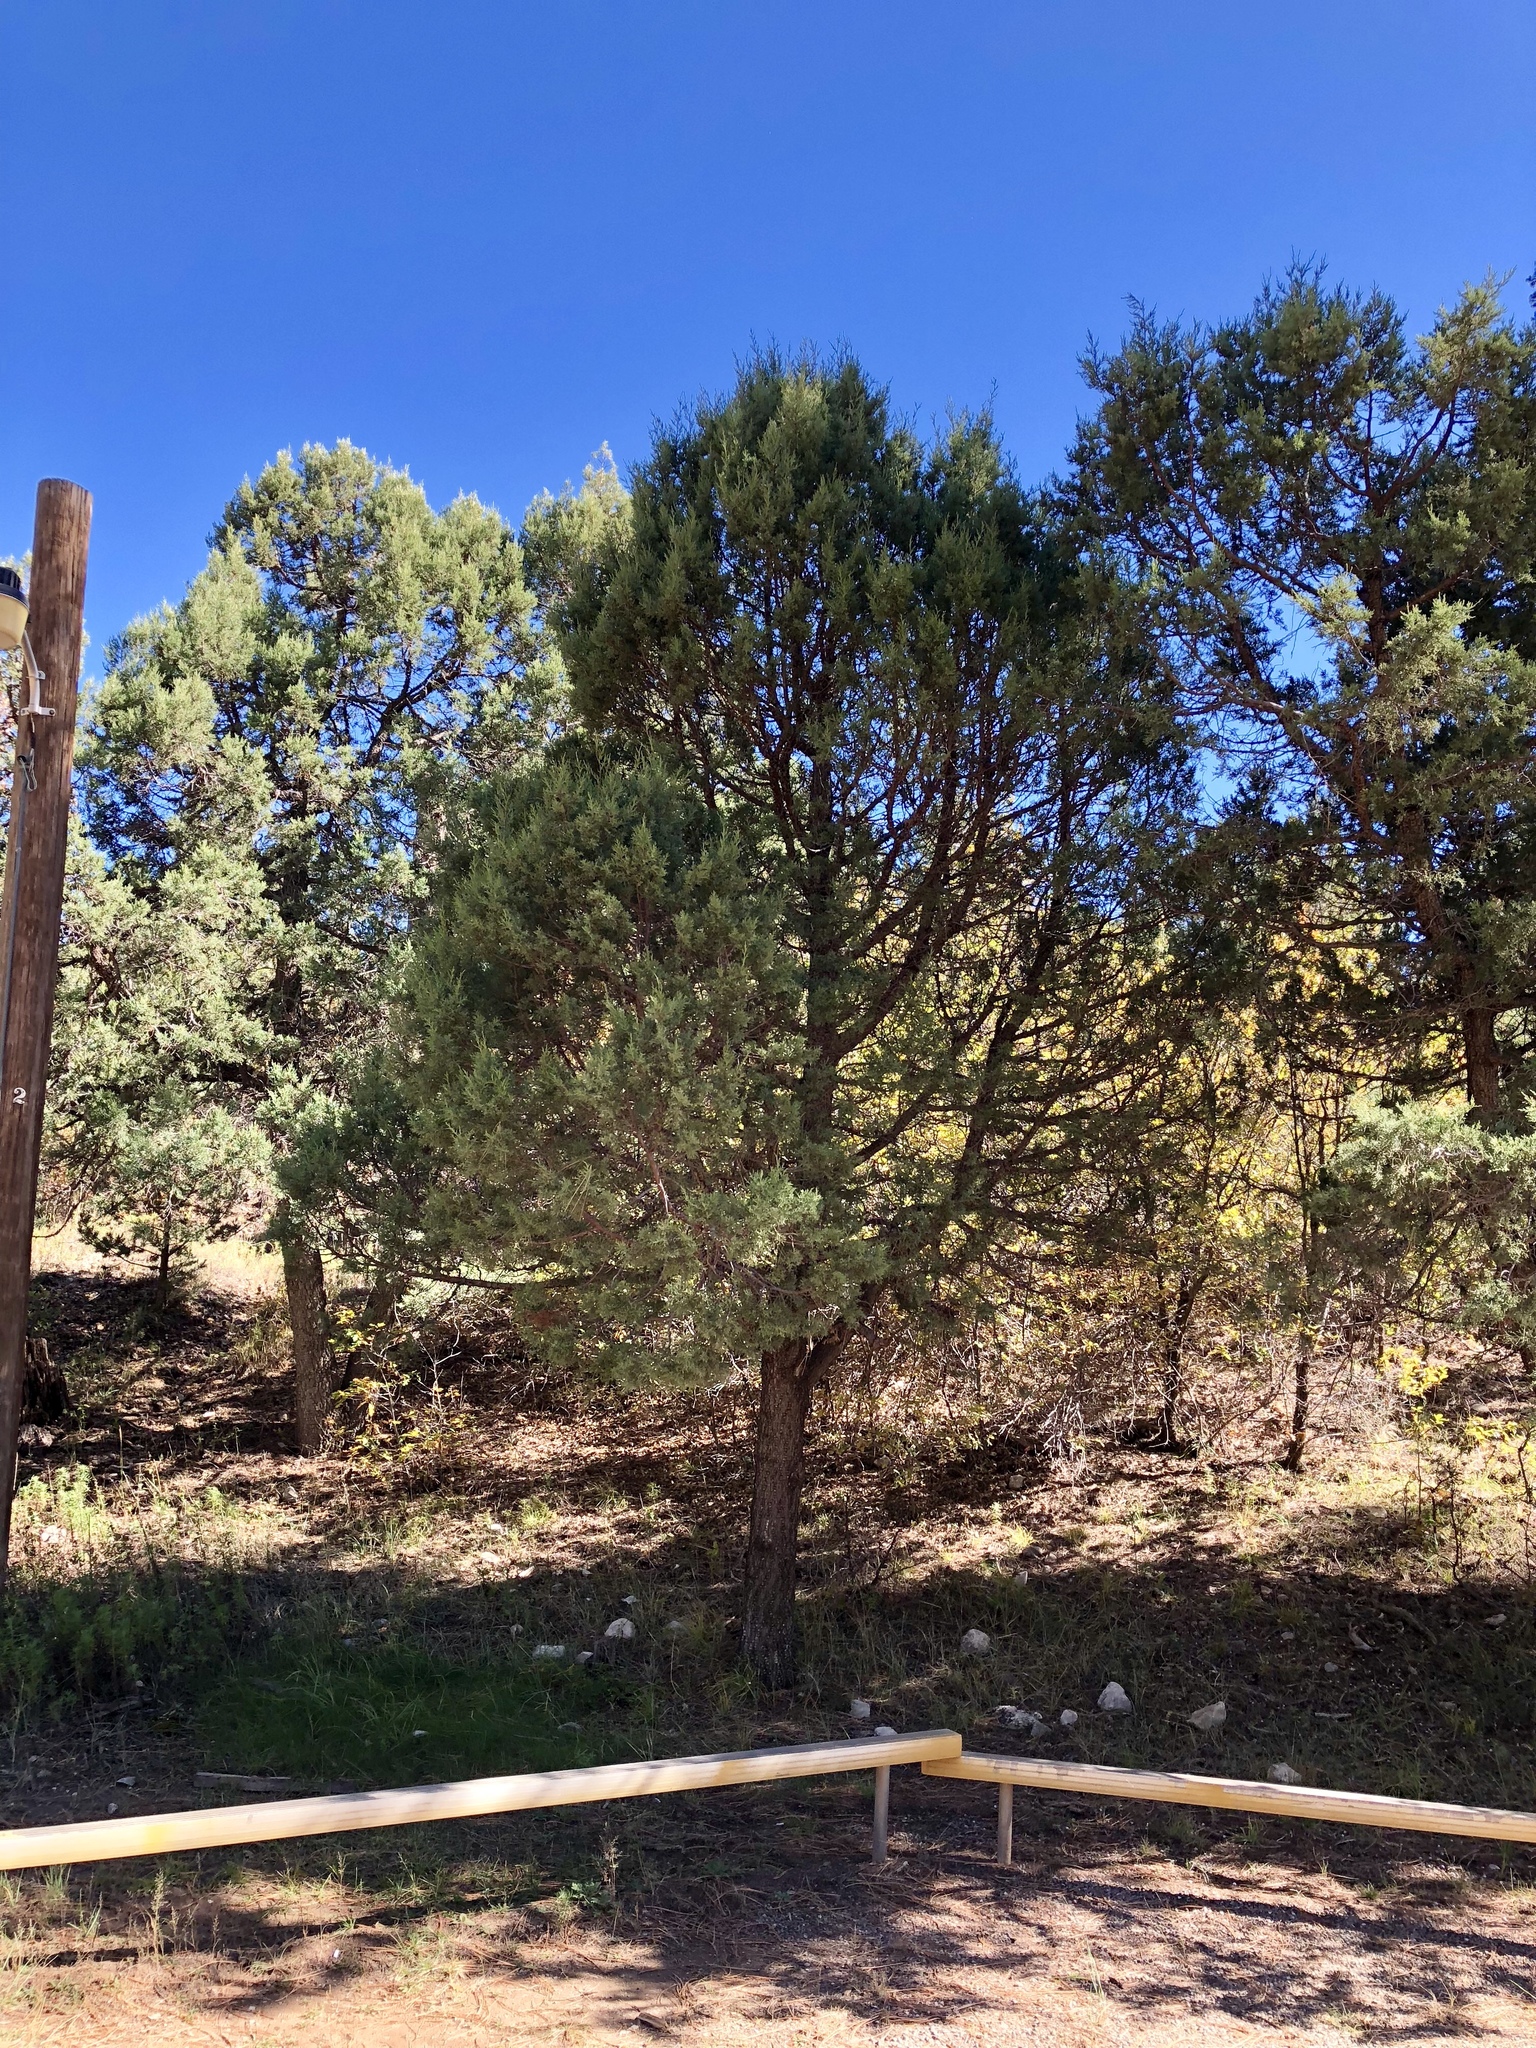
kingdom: Plantae
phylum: Tracheophyta
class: Pinopsida
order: Pinales
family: Cupressaceae
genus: Juniperus
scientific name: Juniperus deppeana
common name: Alligator juniper
